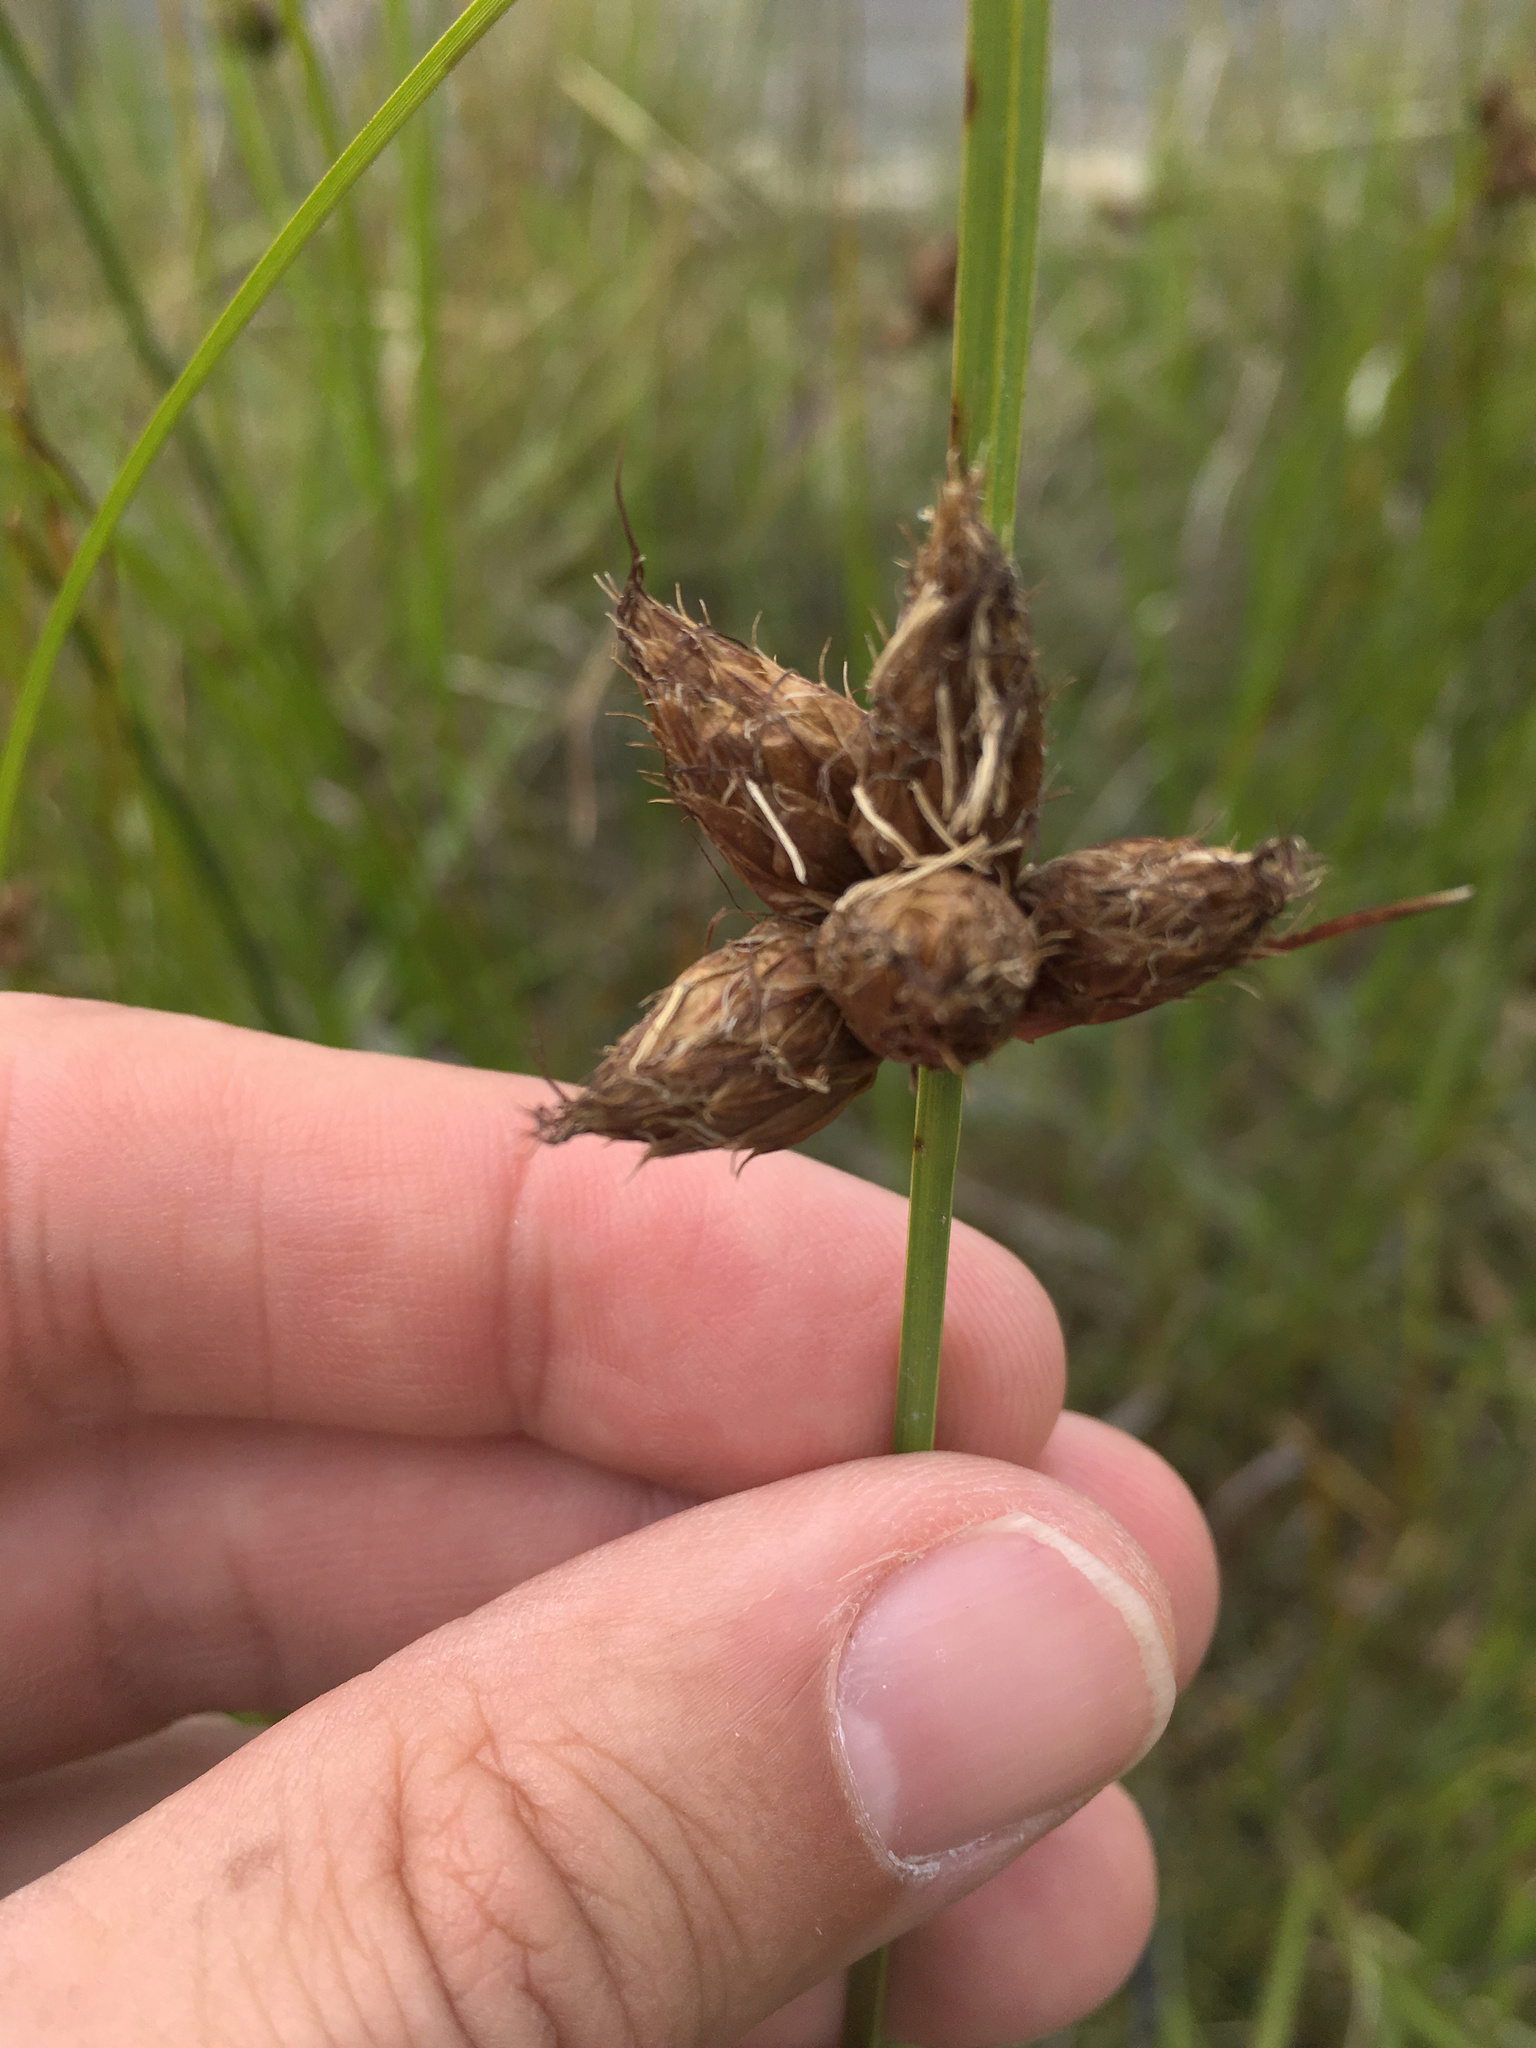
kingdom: Plantae
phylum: Tracheophyta
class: Liliopsida
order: Poales
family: Cyperaceae
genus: Bolboschoenus
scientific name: Bolboschoenus caldwellii
